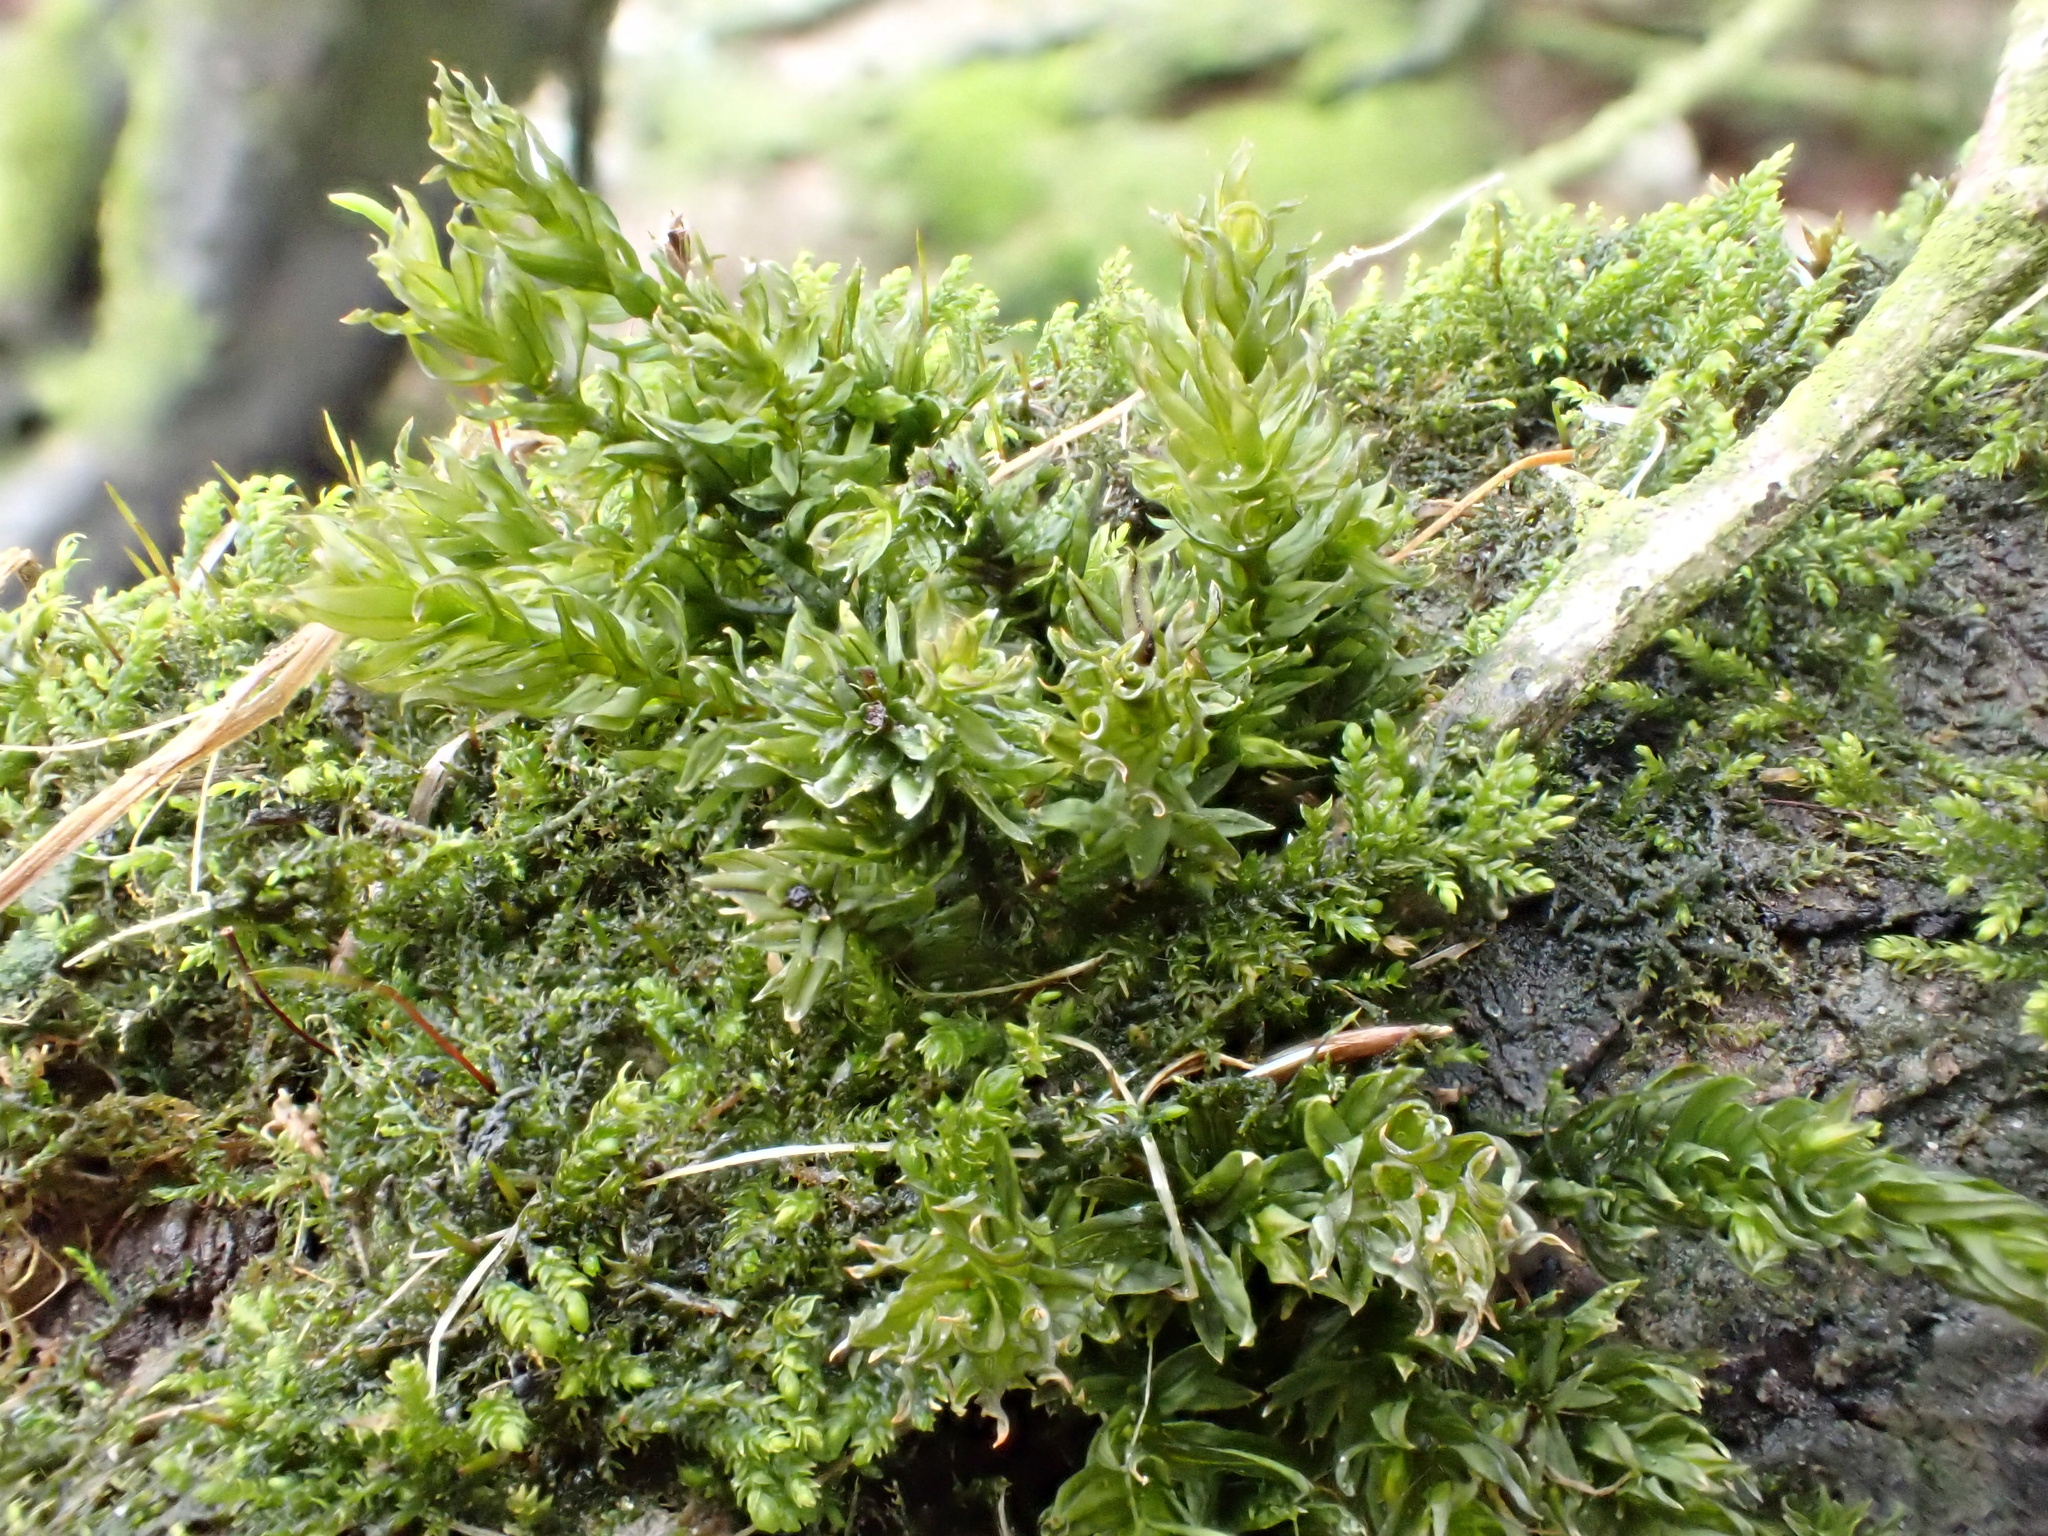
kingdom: Plantae
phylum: Bryophyta
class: Bryopsida
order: Bryales
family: Mniaceae
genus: Mnium
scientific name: Mnium hornum
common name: Swan's-neck leafy moss
